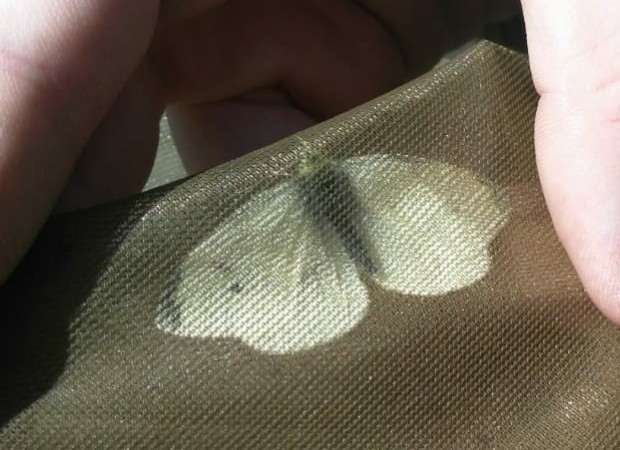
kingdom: Animalia
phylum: Arthropoda
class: Insecta
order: Lepidoptera
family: Pieridae
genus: Pieris
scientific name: Pieris rapae
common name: Small white
